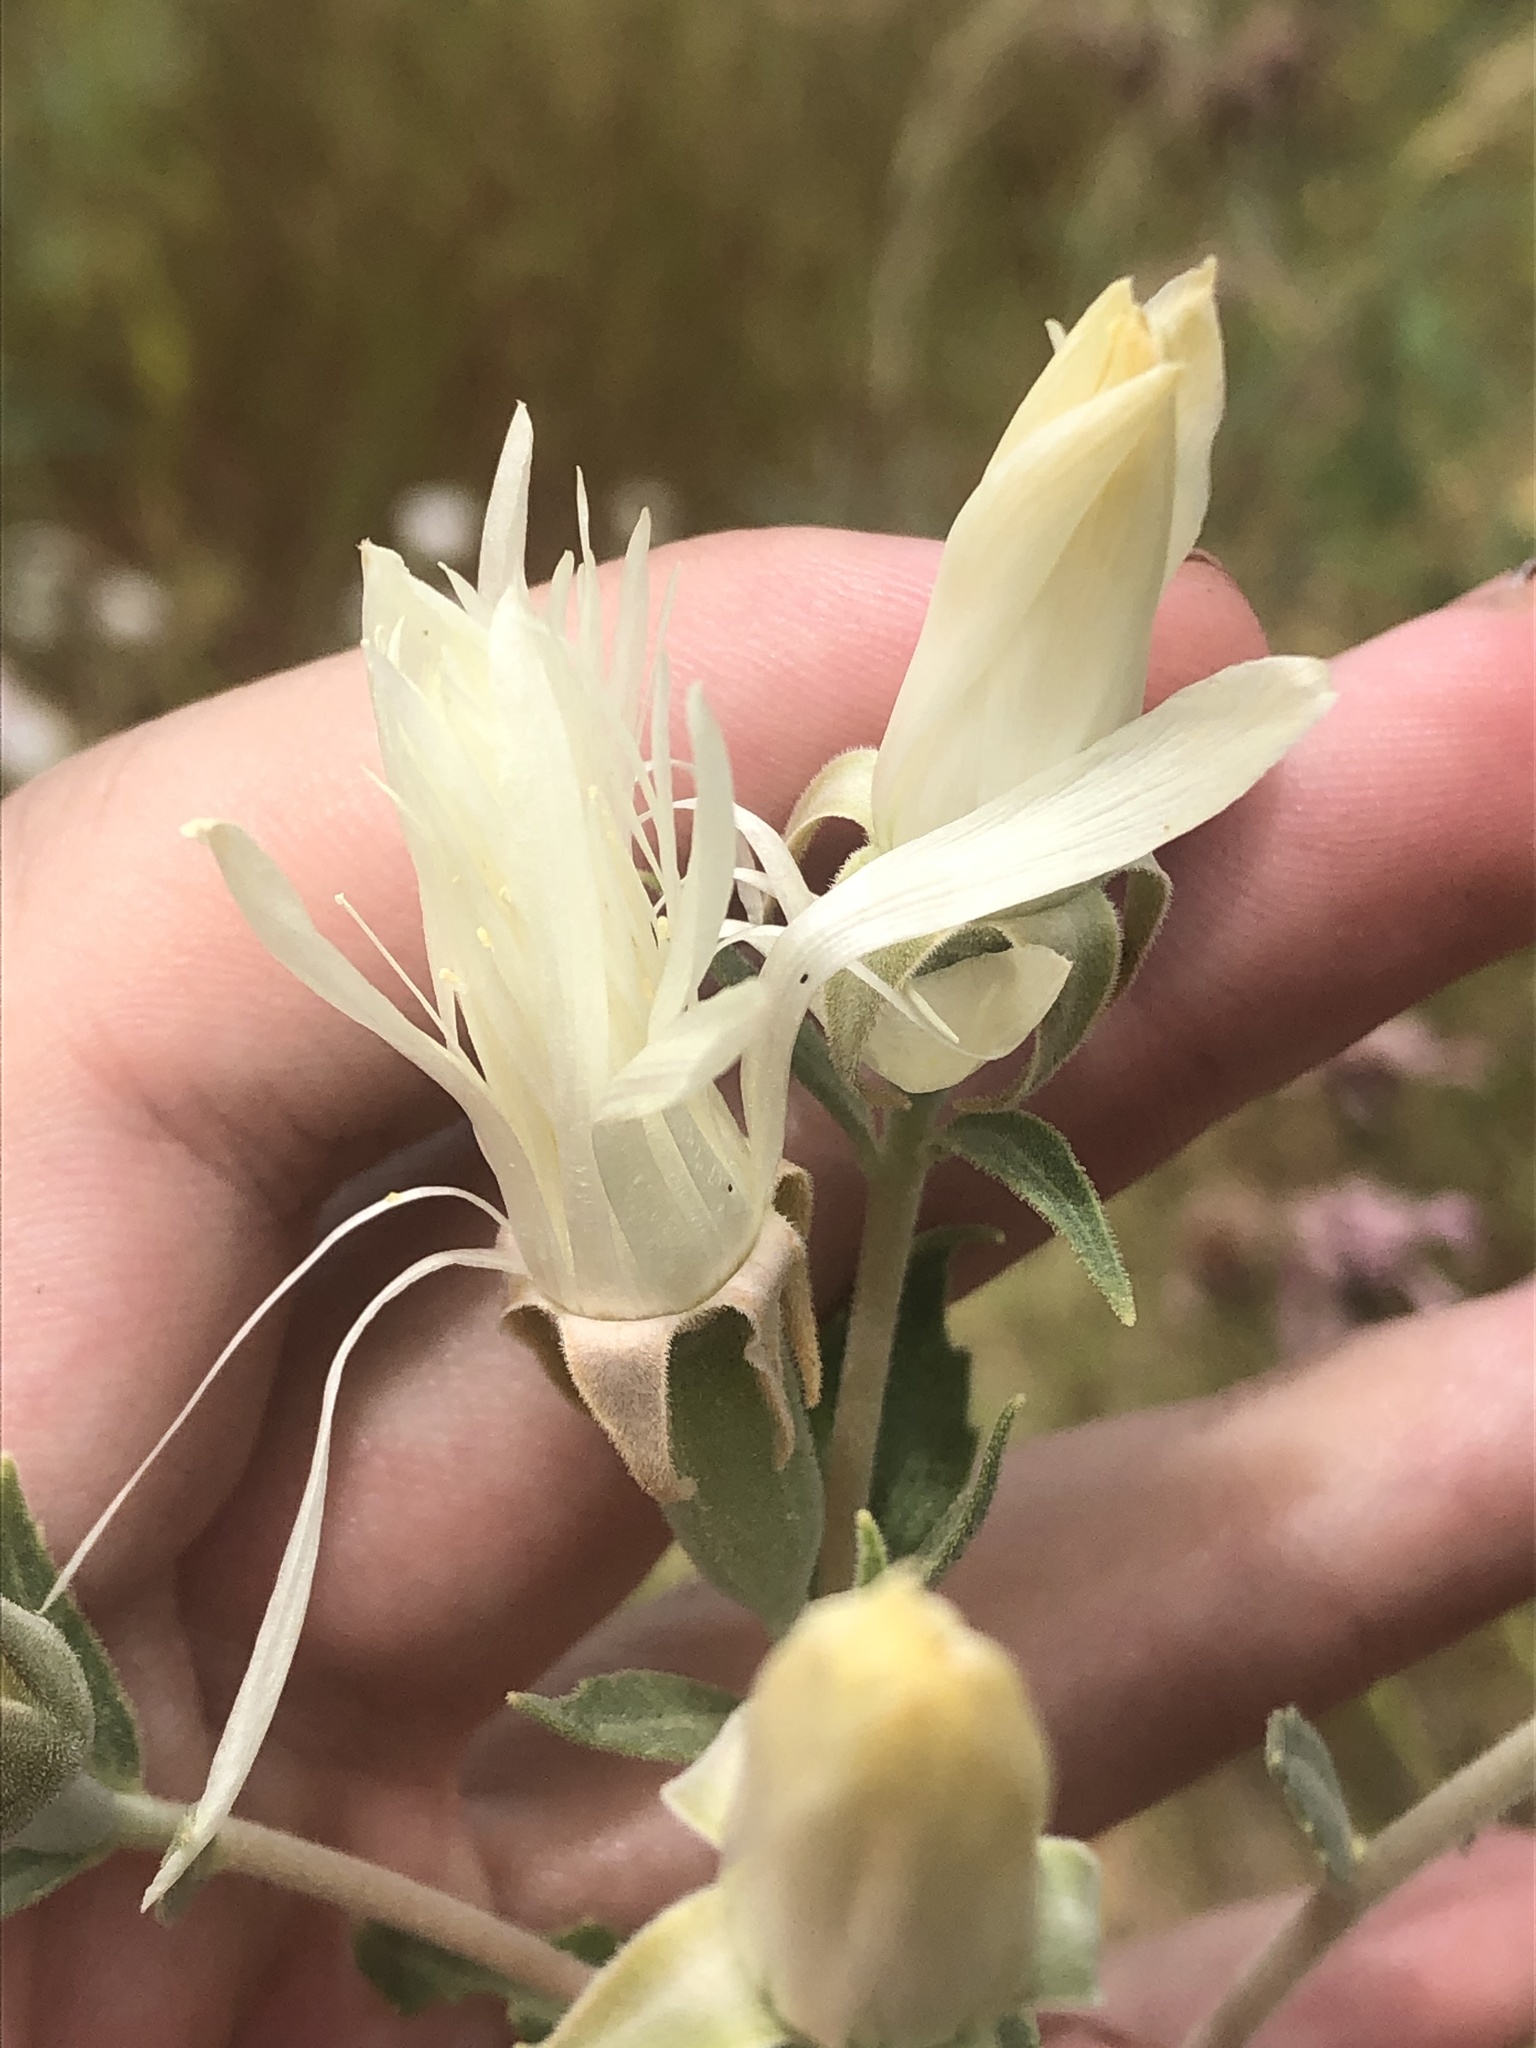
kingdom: Plantae
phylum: Tracheophyta
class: Magnoliopsida
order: Cornales
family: Loasaceae
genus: Mentzelia
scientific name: Mentzelia strictissima
